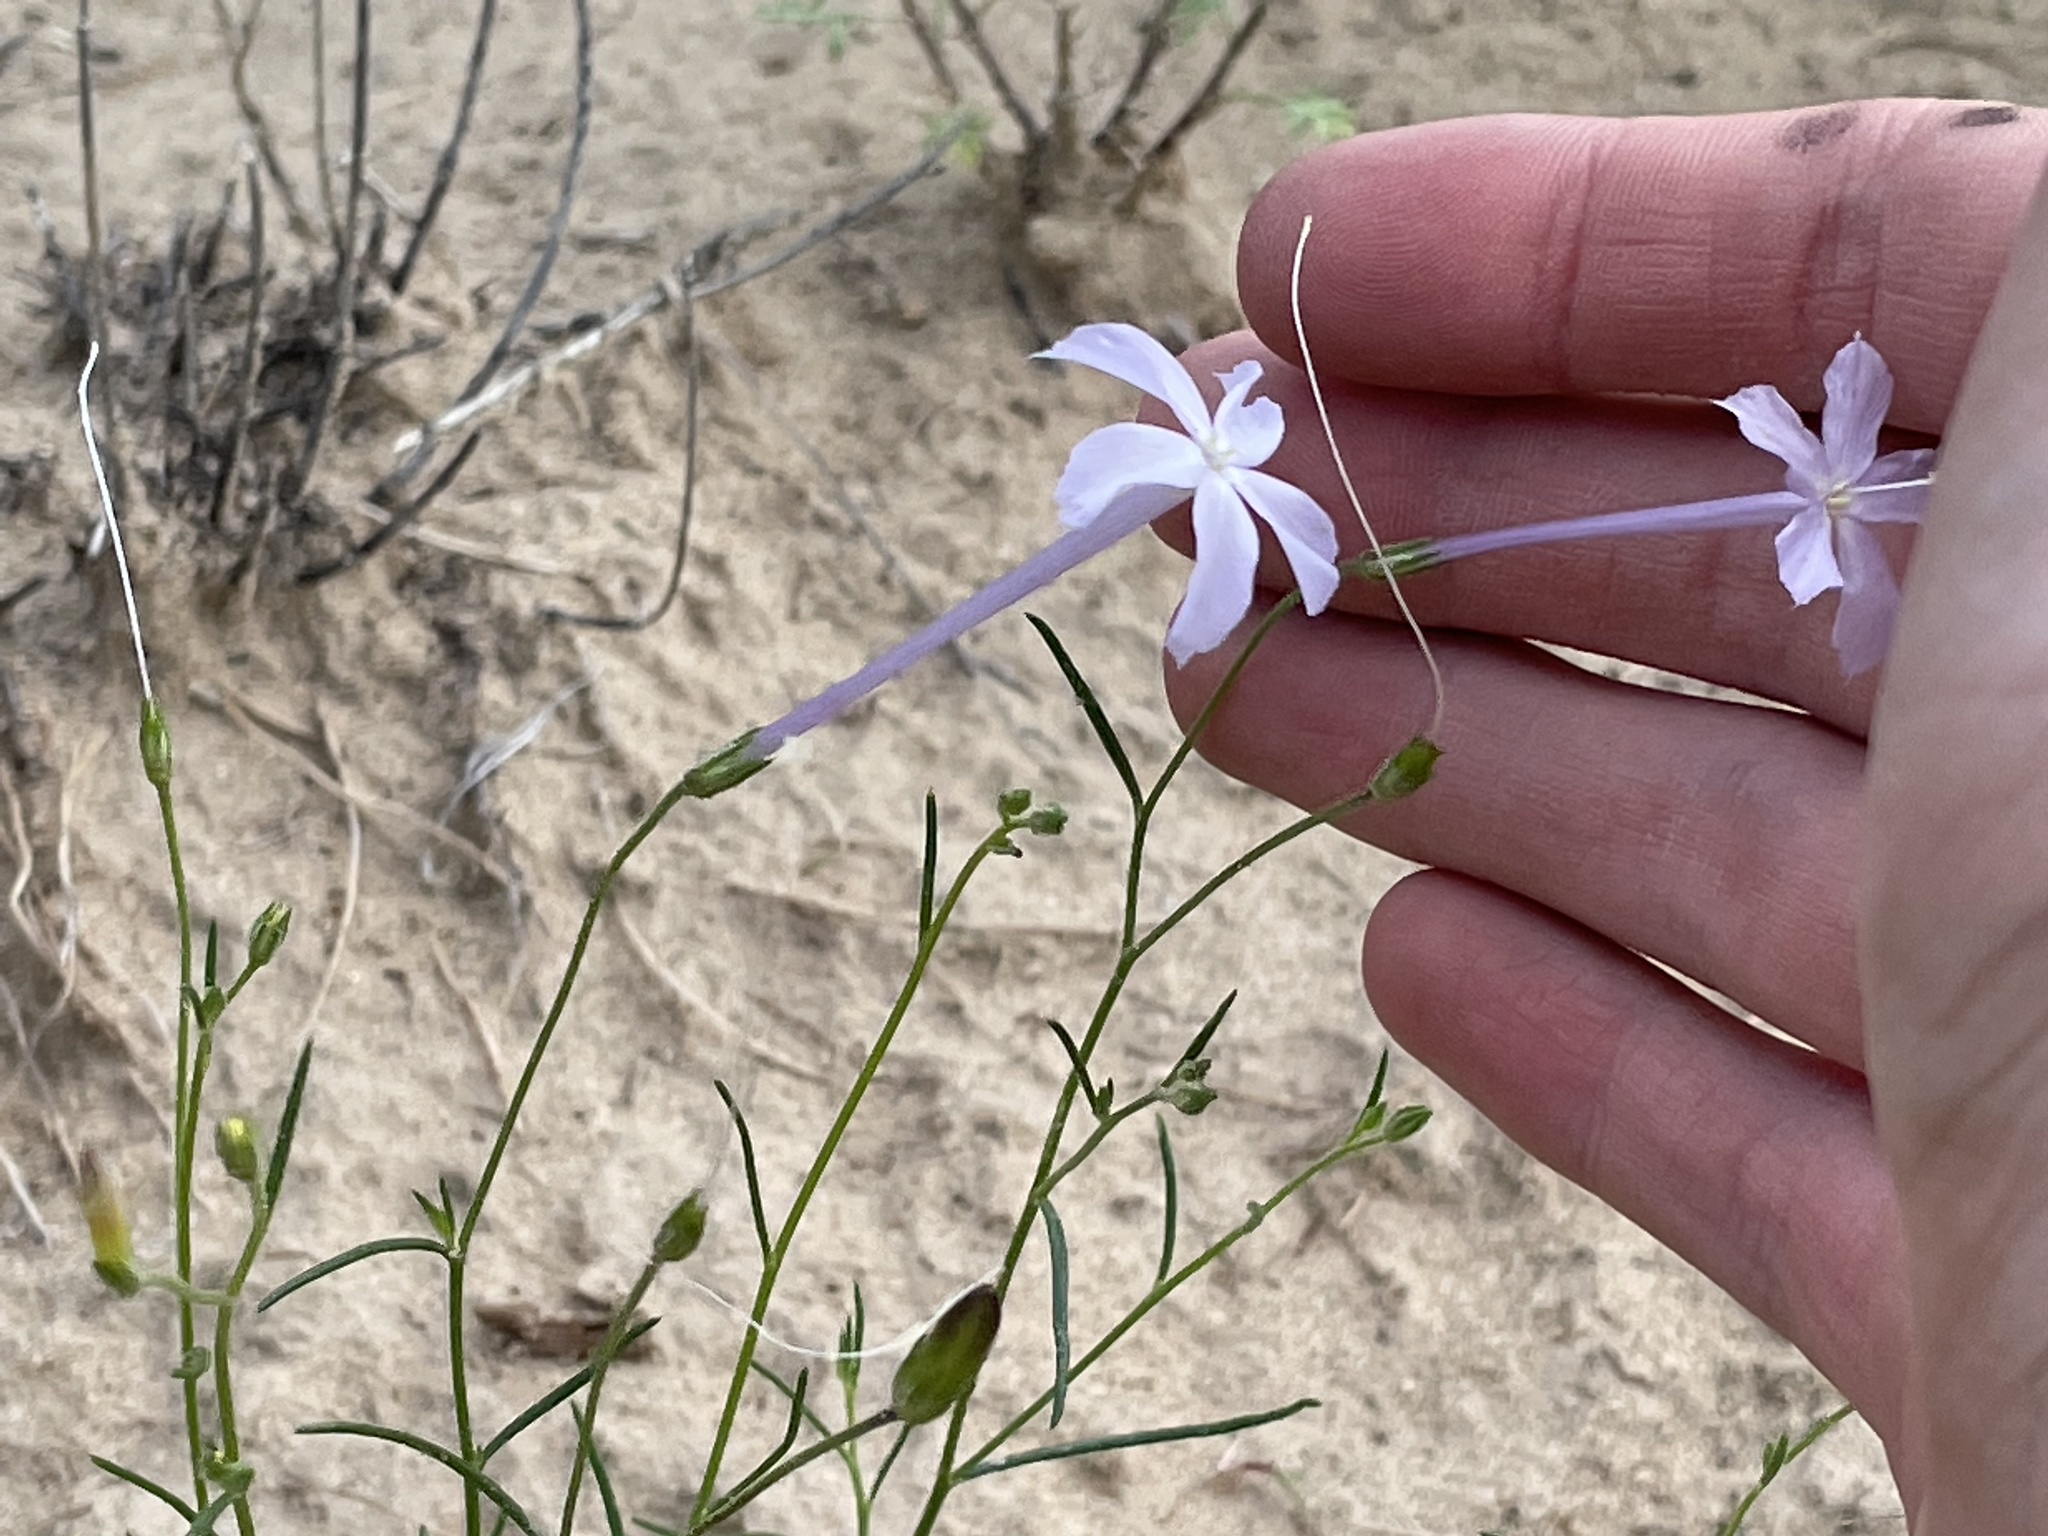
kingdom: Plantae
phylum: Tracheophyta
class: Magnoliopsida
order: Ericales
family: Polemoniaceae
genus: Ipomopsis
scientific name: Ipomopsis longiflora
